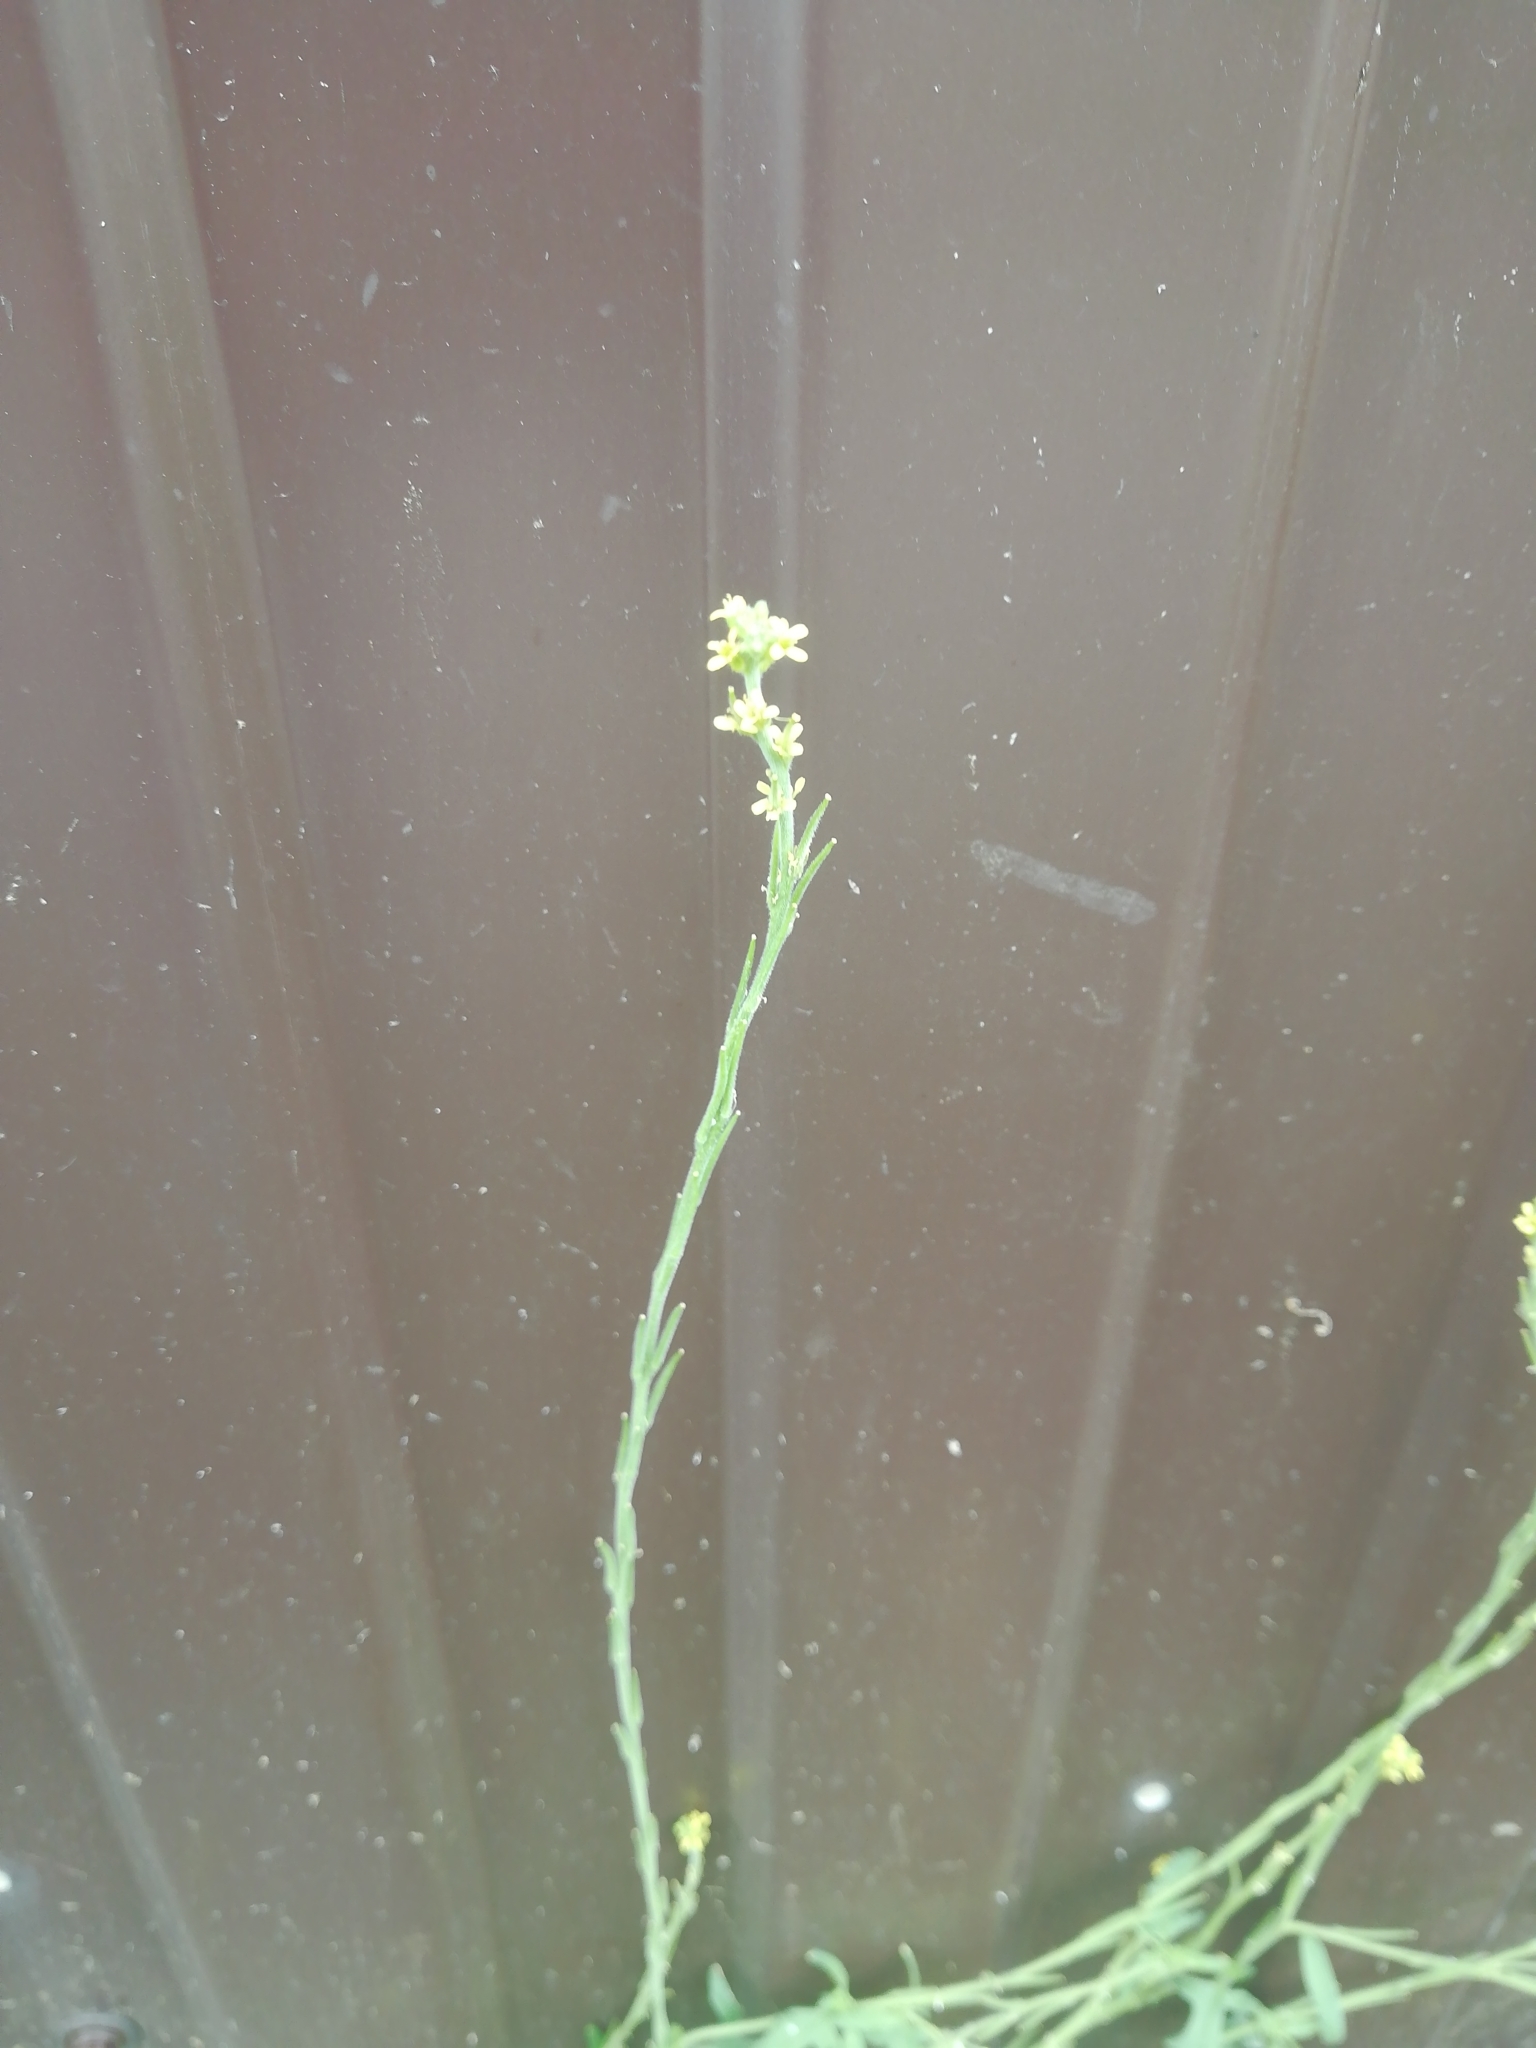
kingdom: Plantae
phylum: Tracheophyta
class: Magnoliopsida
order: Brassicales
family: Brassicaceae
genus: Sisymbrium
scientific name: Sisymbrium officinale
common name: Hedge mustard
